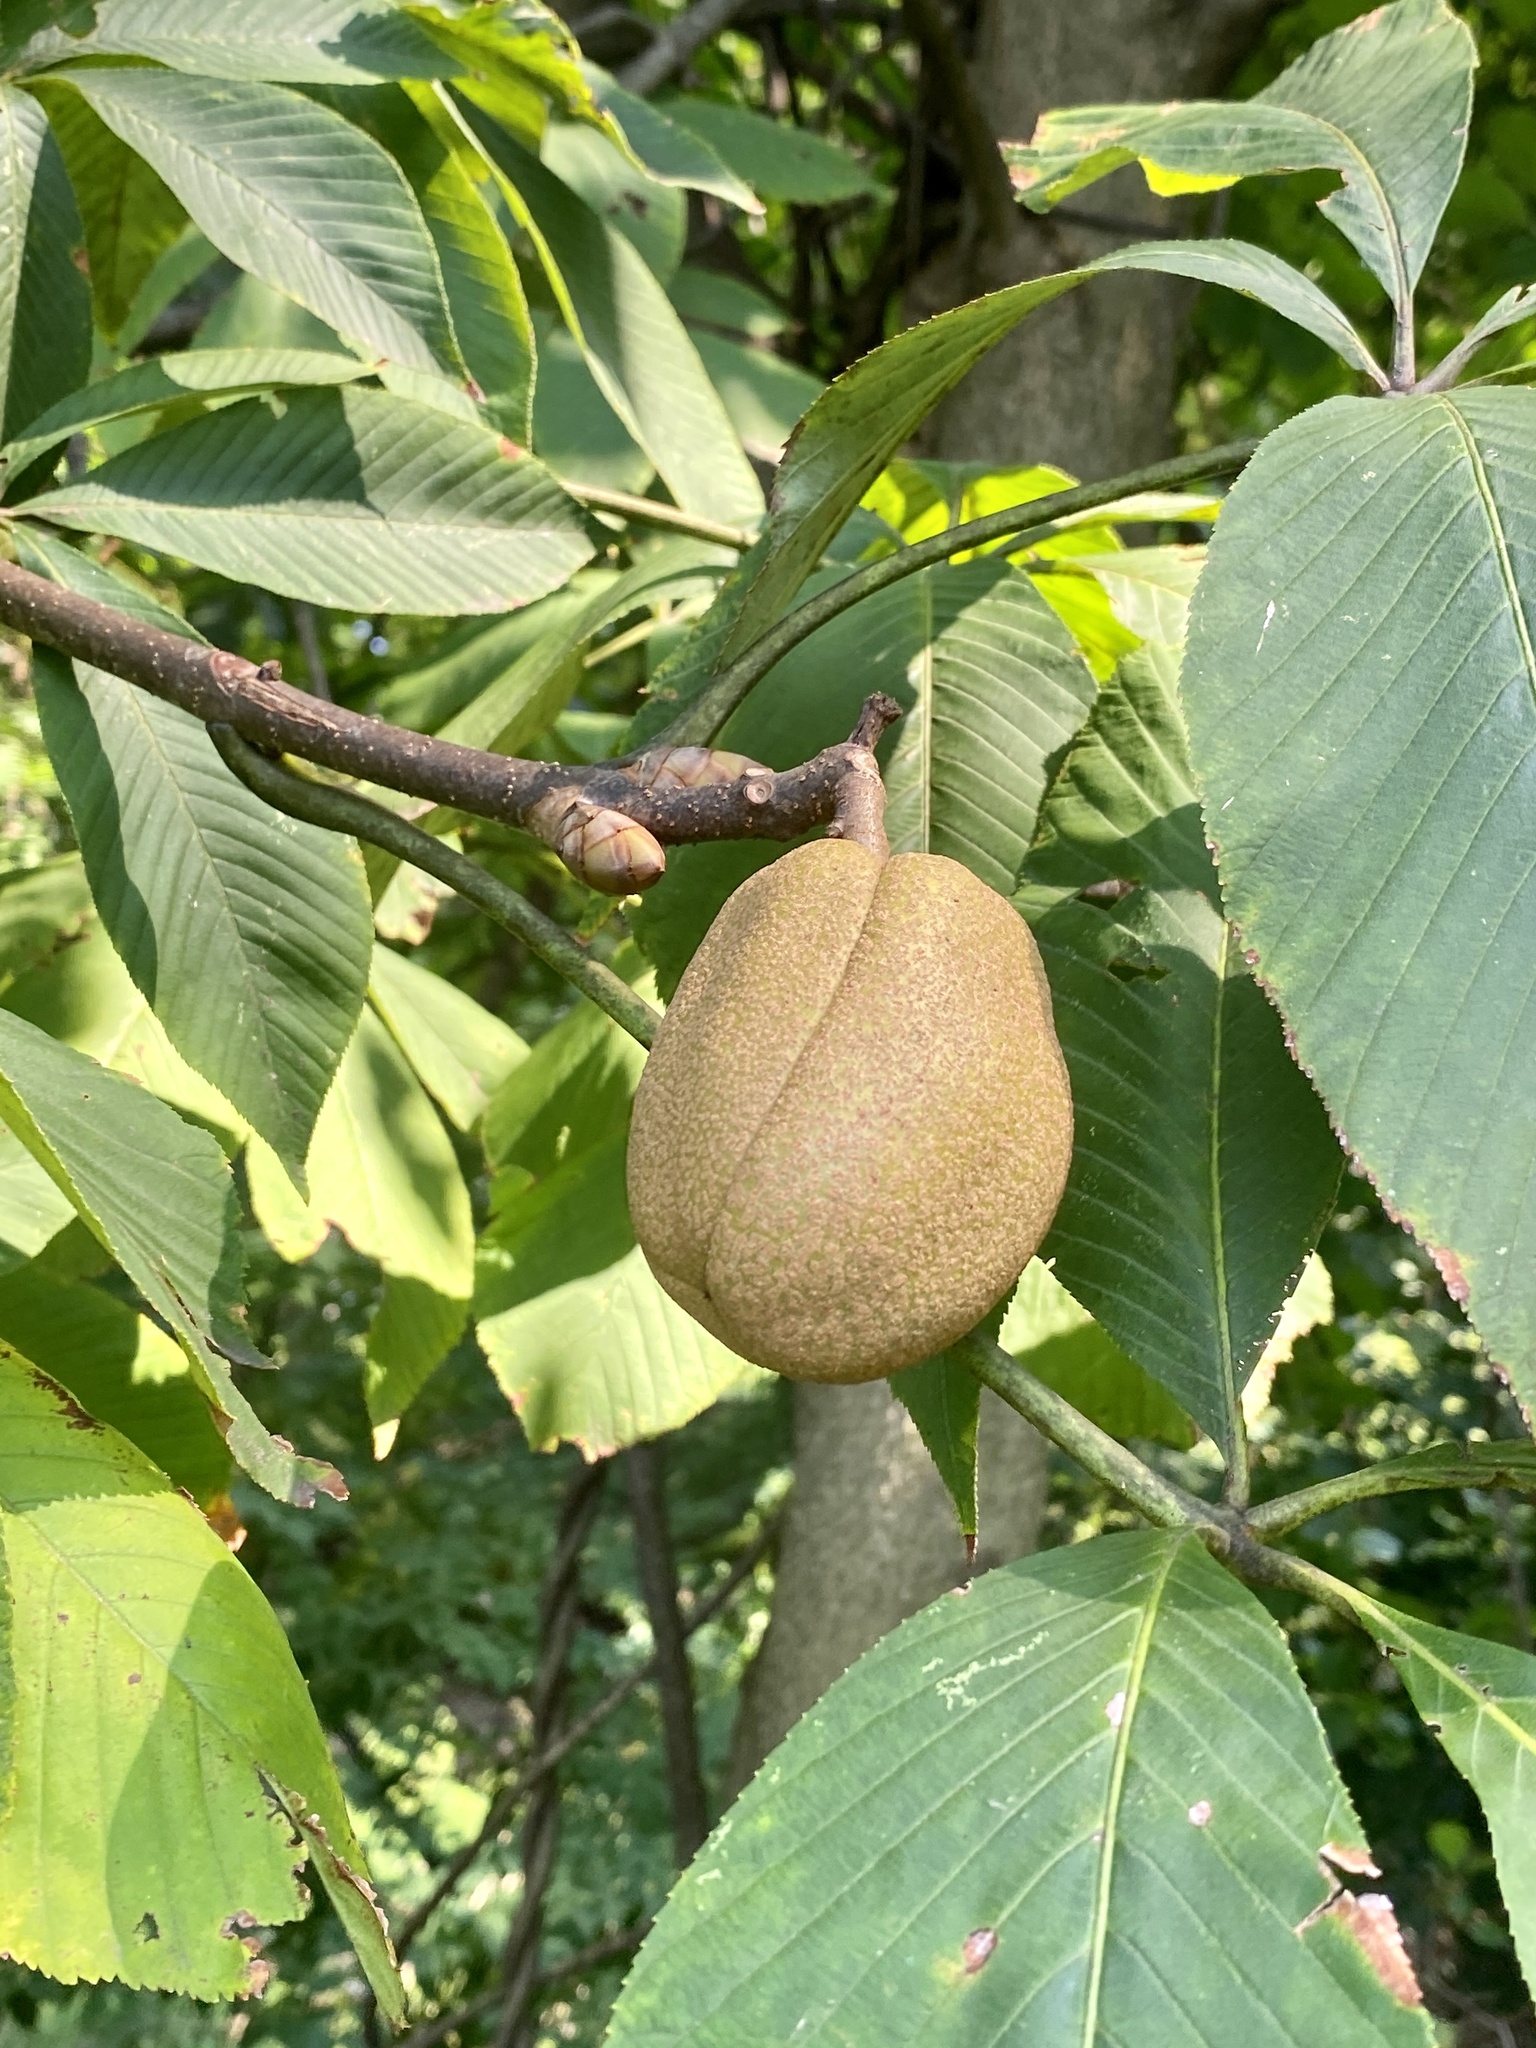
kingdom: Plantae
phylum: Tracheophyta
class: Magnoliopsida
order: Sapindales
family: Sapindaceae
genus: Aesculus
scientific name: Aesculus flava
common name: Yellow buckeye
